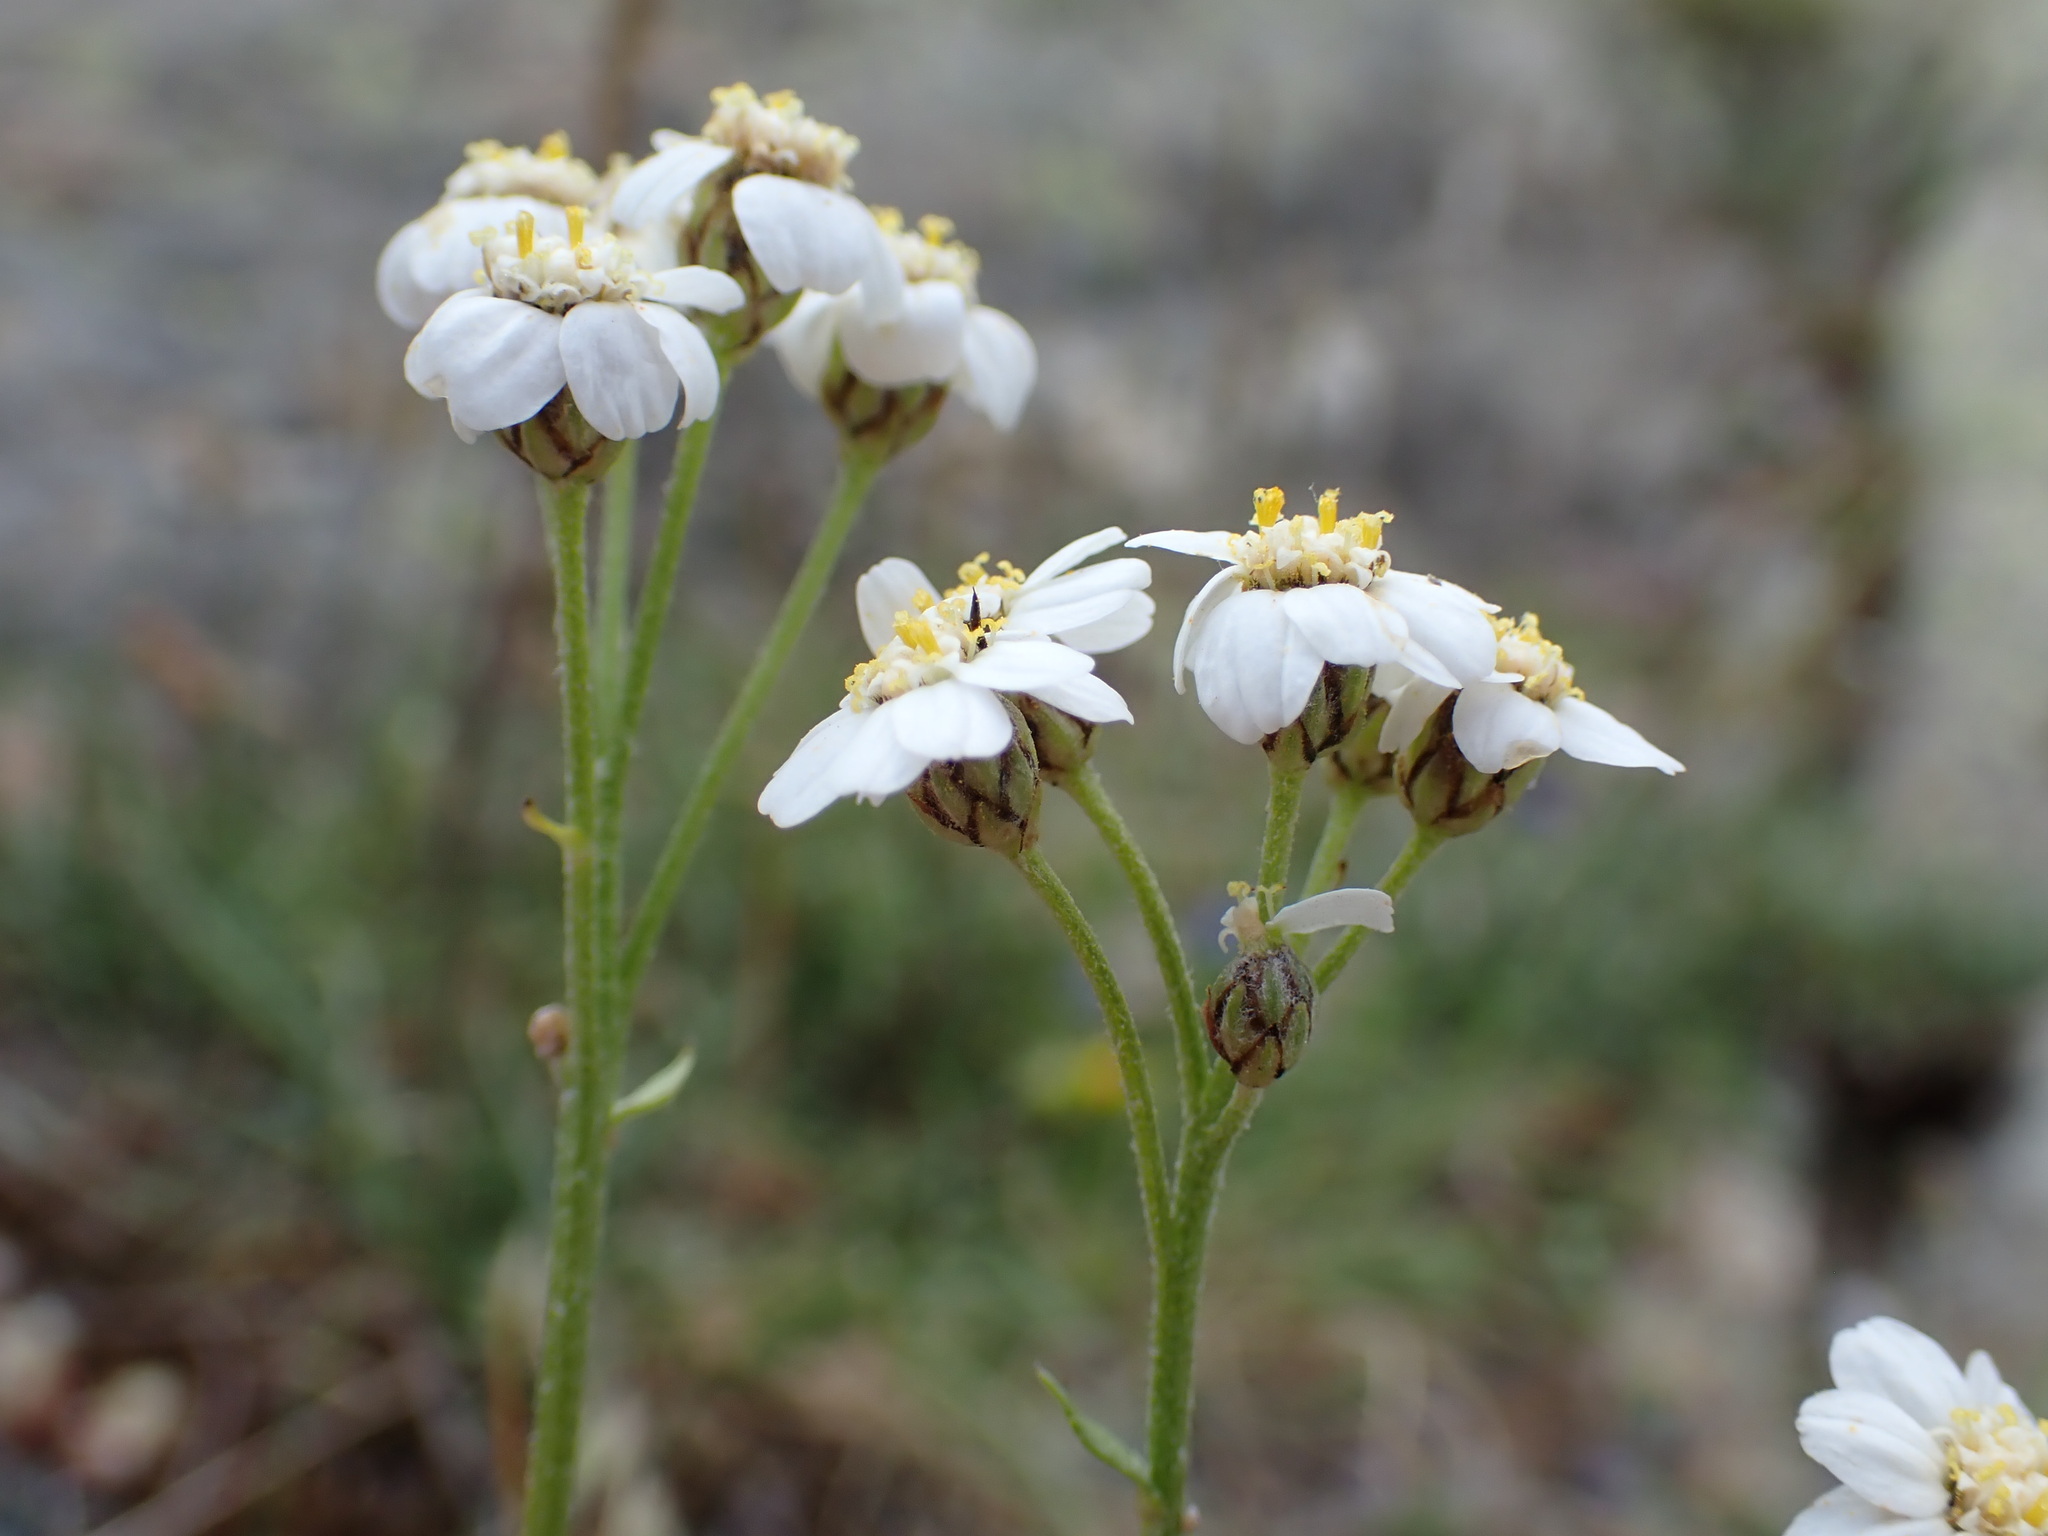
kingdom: Plantae
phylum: Tracheophyta
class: Magnoliopsida
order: Asterales
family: Asteraceae
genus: Achillea
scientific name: Achillea erba-rotta
